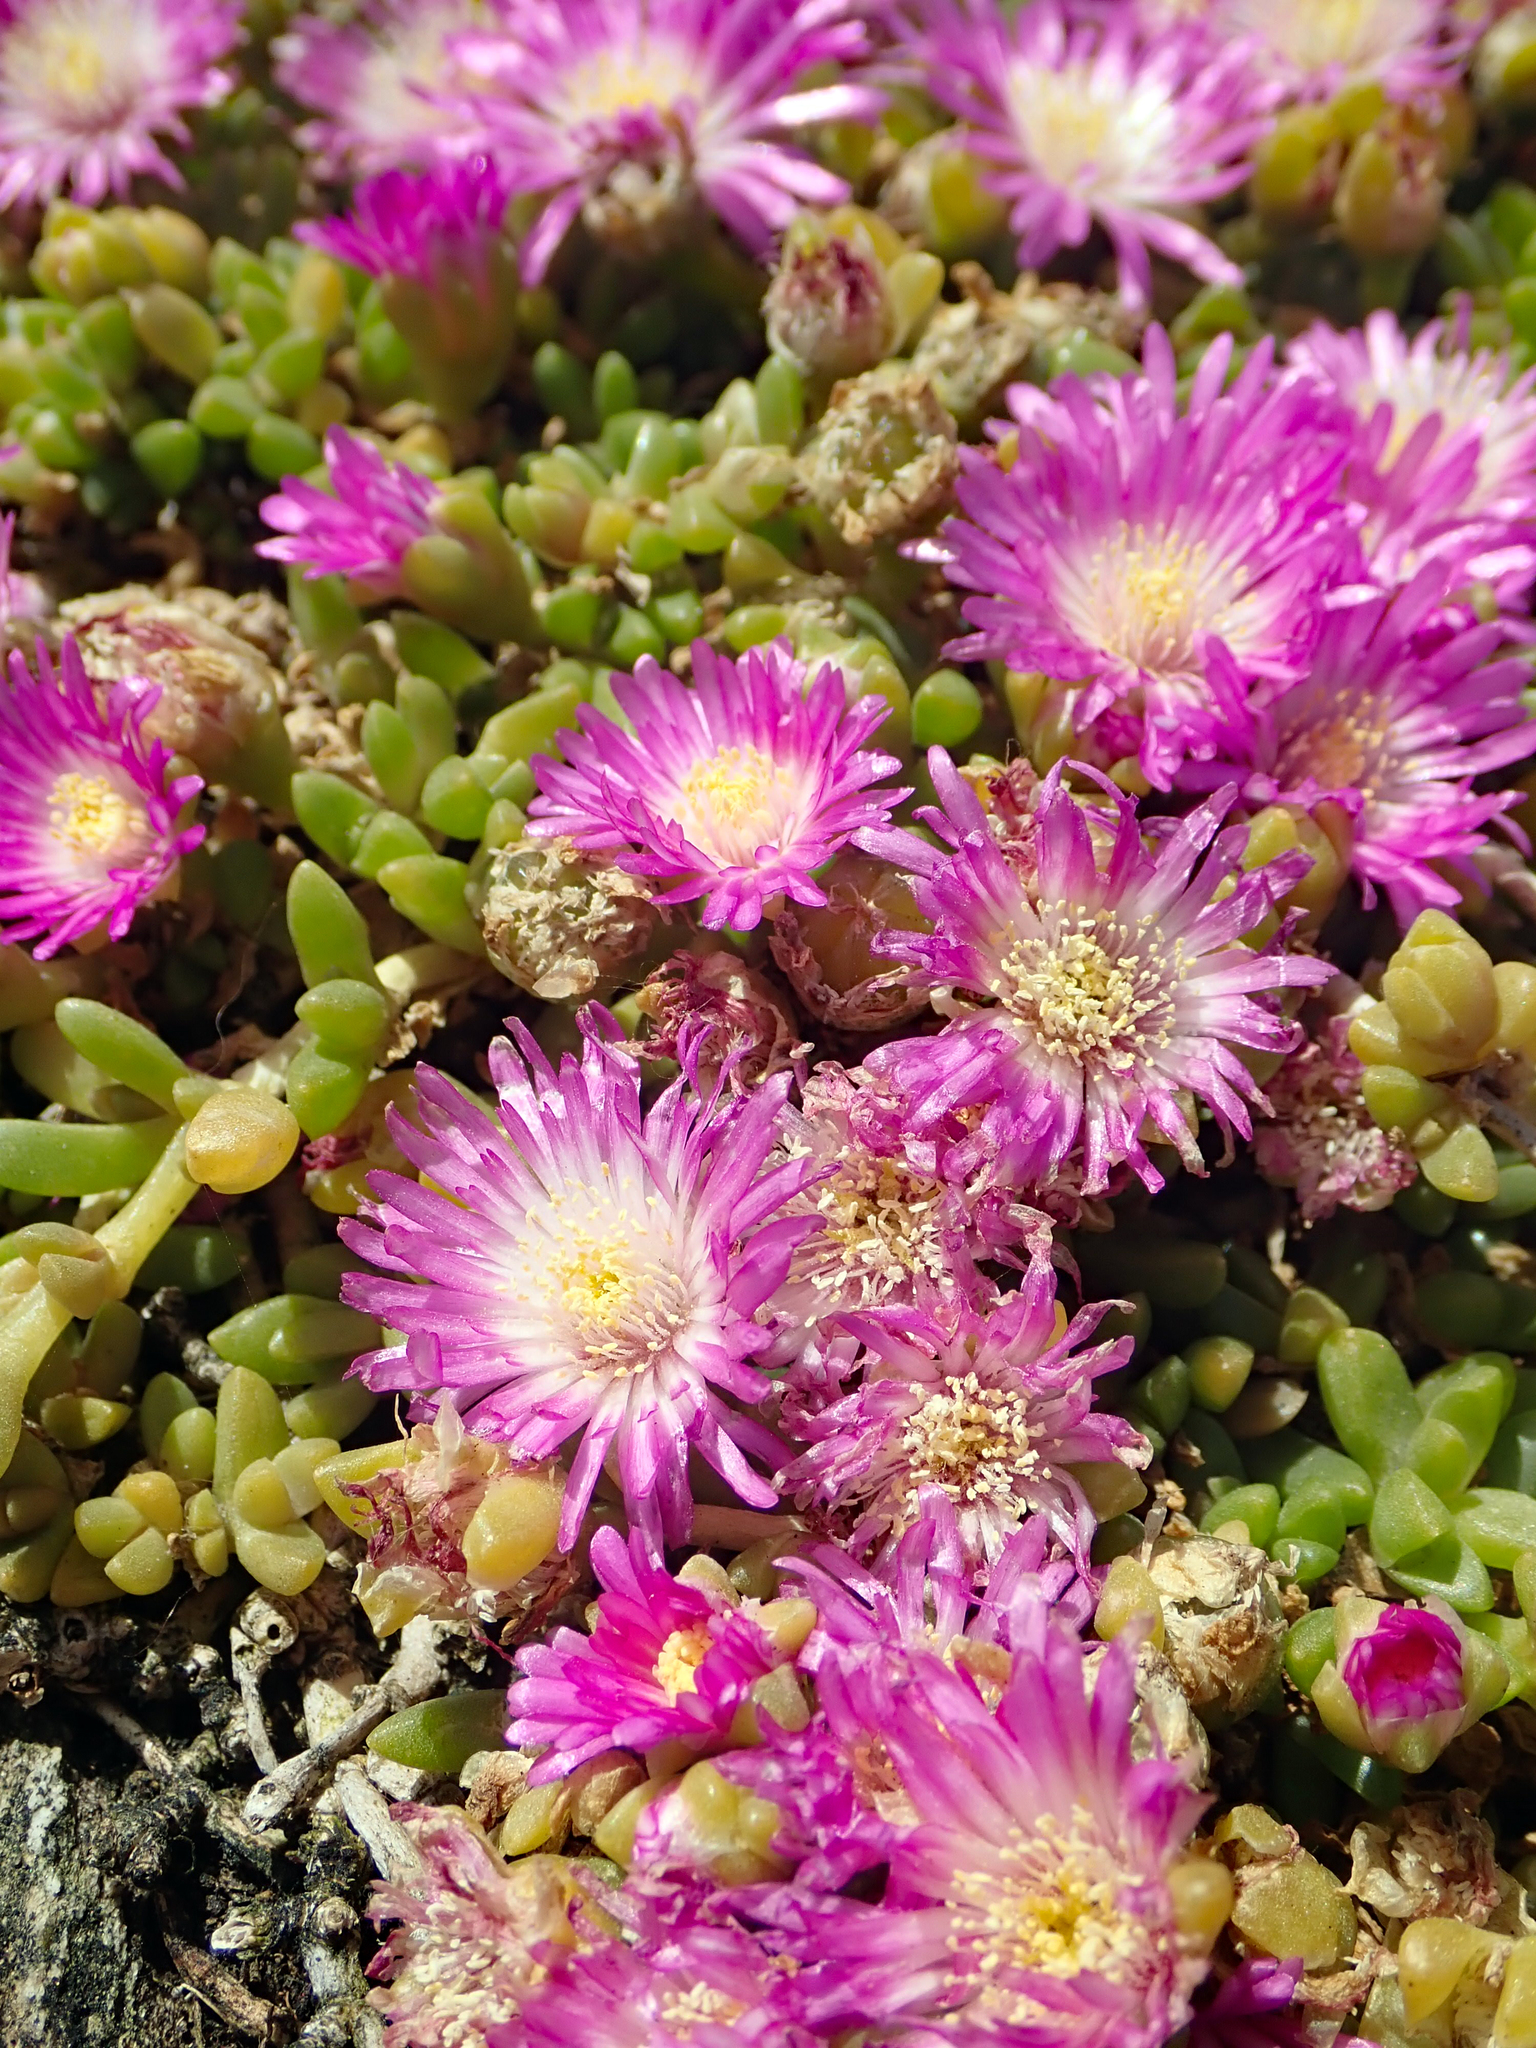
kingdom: Plantae
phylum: Tracheophyta
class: Magnoliopsida
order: Caryophyllales
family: Aizoaceae
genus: Disphyma
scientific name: Disphyma papillatum
